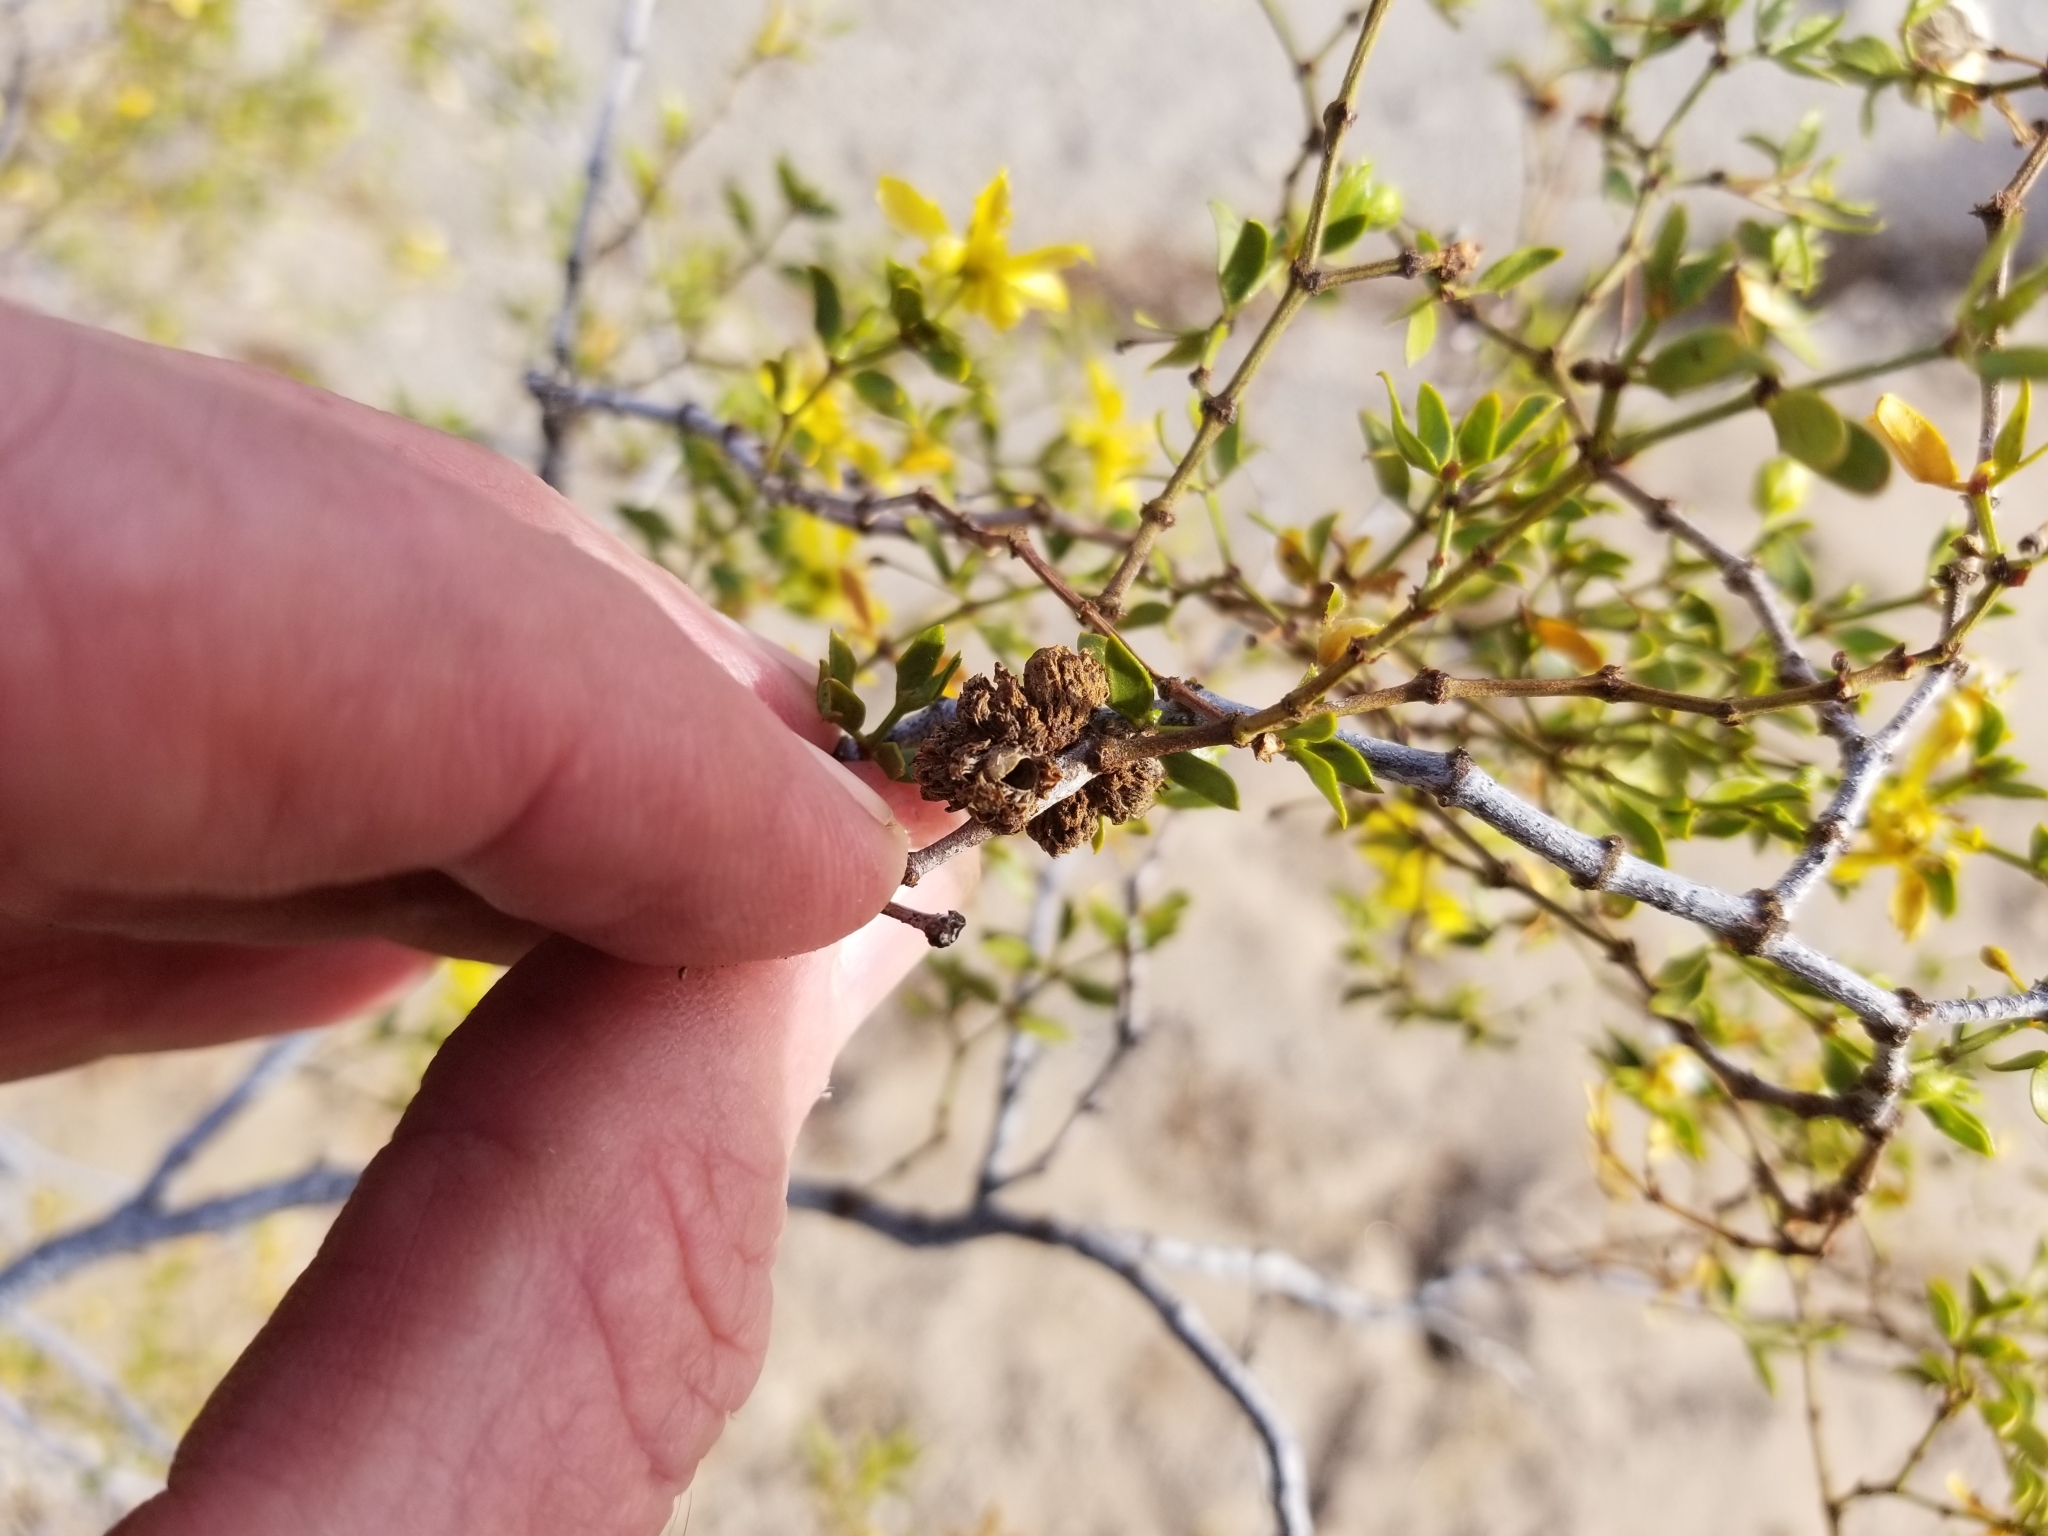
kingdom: Animalia
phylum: Arthropoda
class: Insecta
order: Diptera
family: Cecidomyiidae
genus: Asphondylia
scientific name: Asphondylia foliosa
